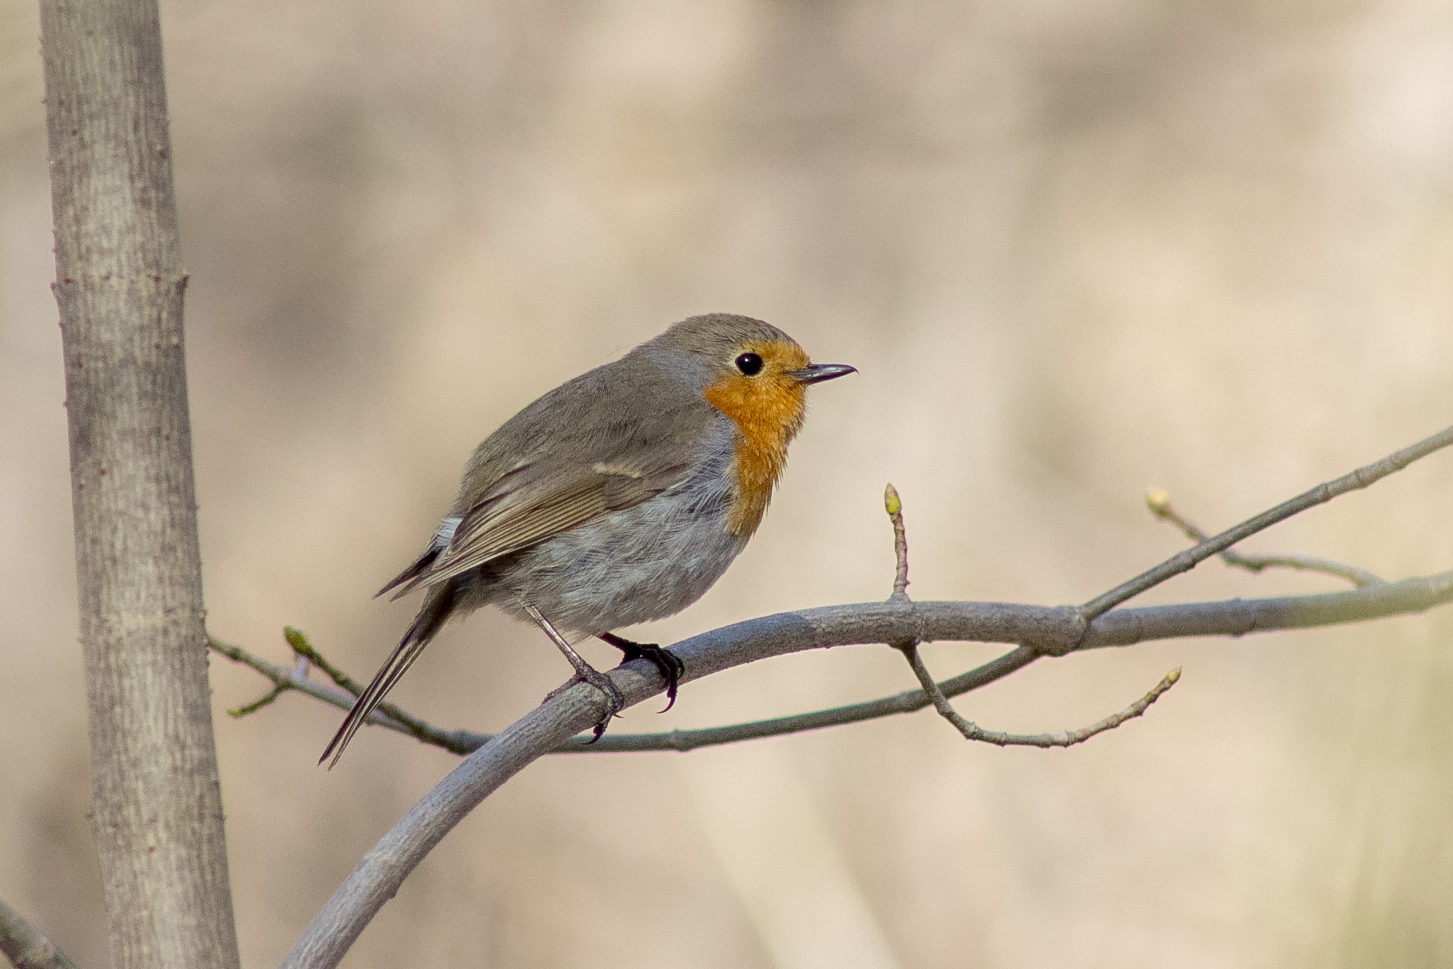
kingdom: Animalia
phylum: Chordata
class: Aves
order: Passeriformes
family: Muscicapidae
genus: Erithacus
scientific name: Erithacus rubecula
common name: European robin
